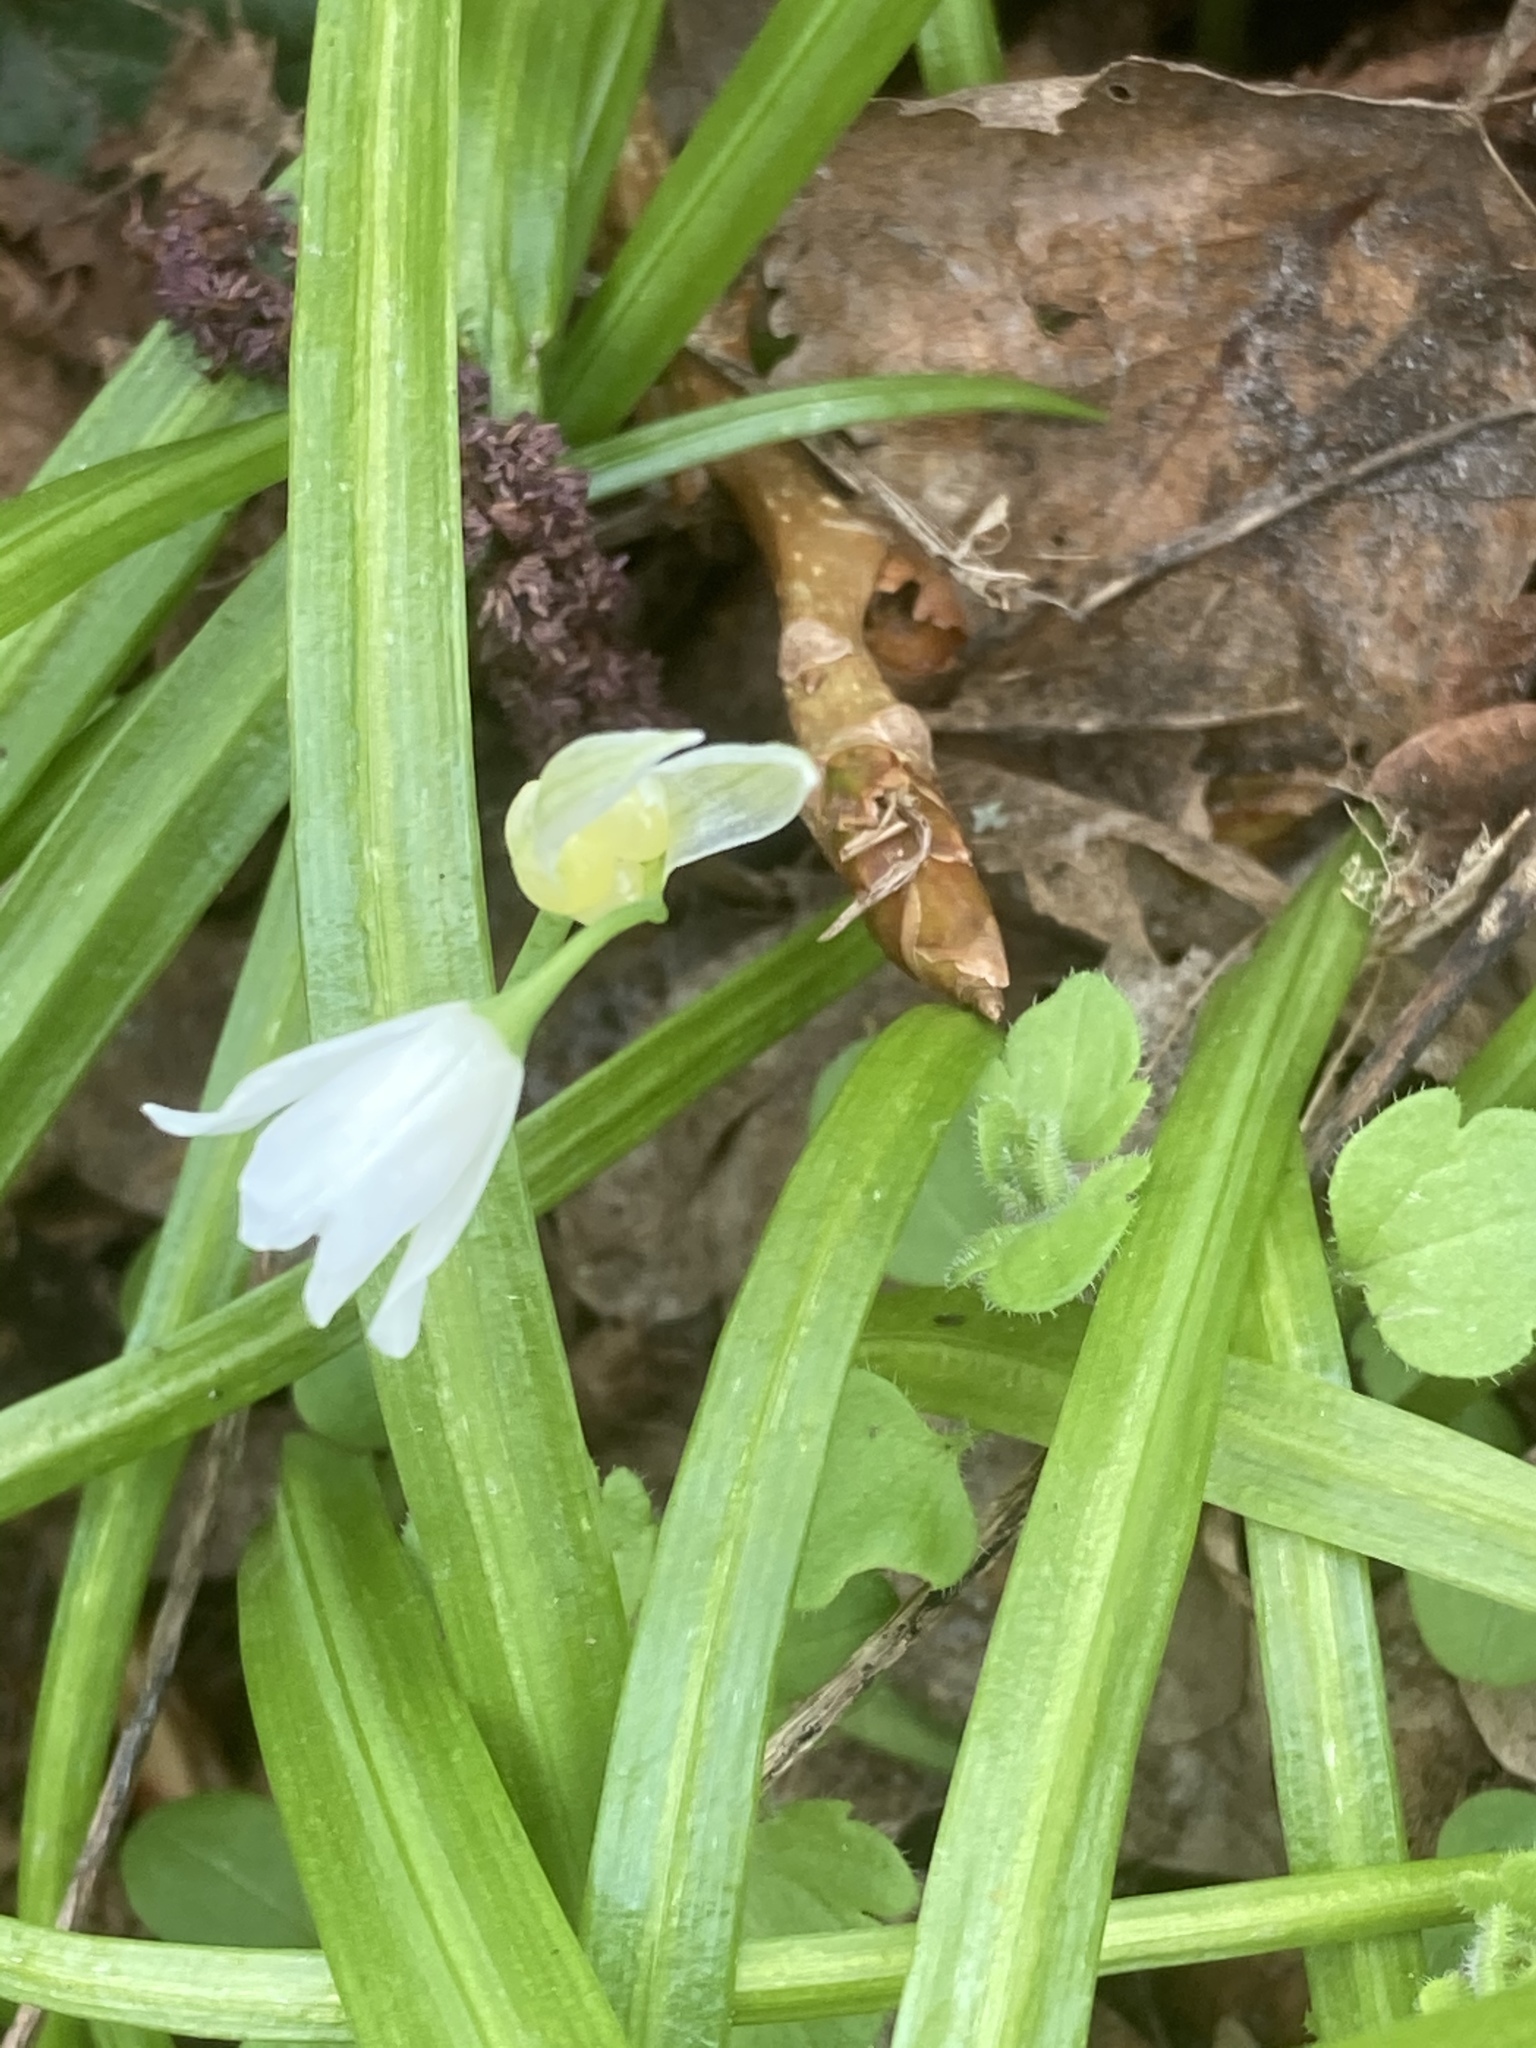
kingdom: Plantae
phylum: Tracheophyta
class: Liliopsida
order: Asparagales
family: Amaryllidaceae
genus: Allium
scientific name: Allium paradoxum
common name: Few-flowered garlic
